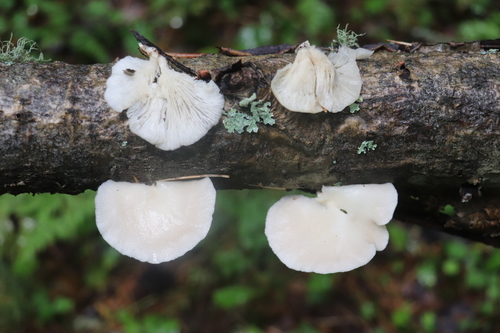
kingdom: Fungi
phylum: Basidiomycota
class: Agaricomycetes
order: Agaricales
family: Pleurotaceae
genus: Pleurotus
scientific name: Pleurotus pulmonarius
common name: Pale oyster
